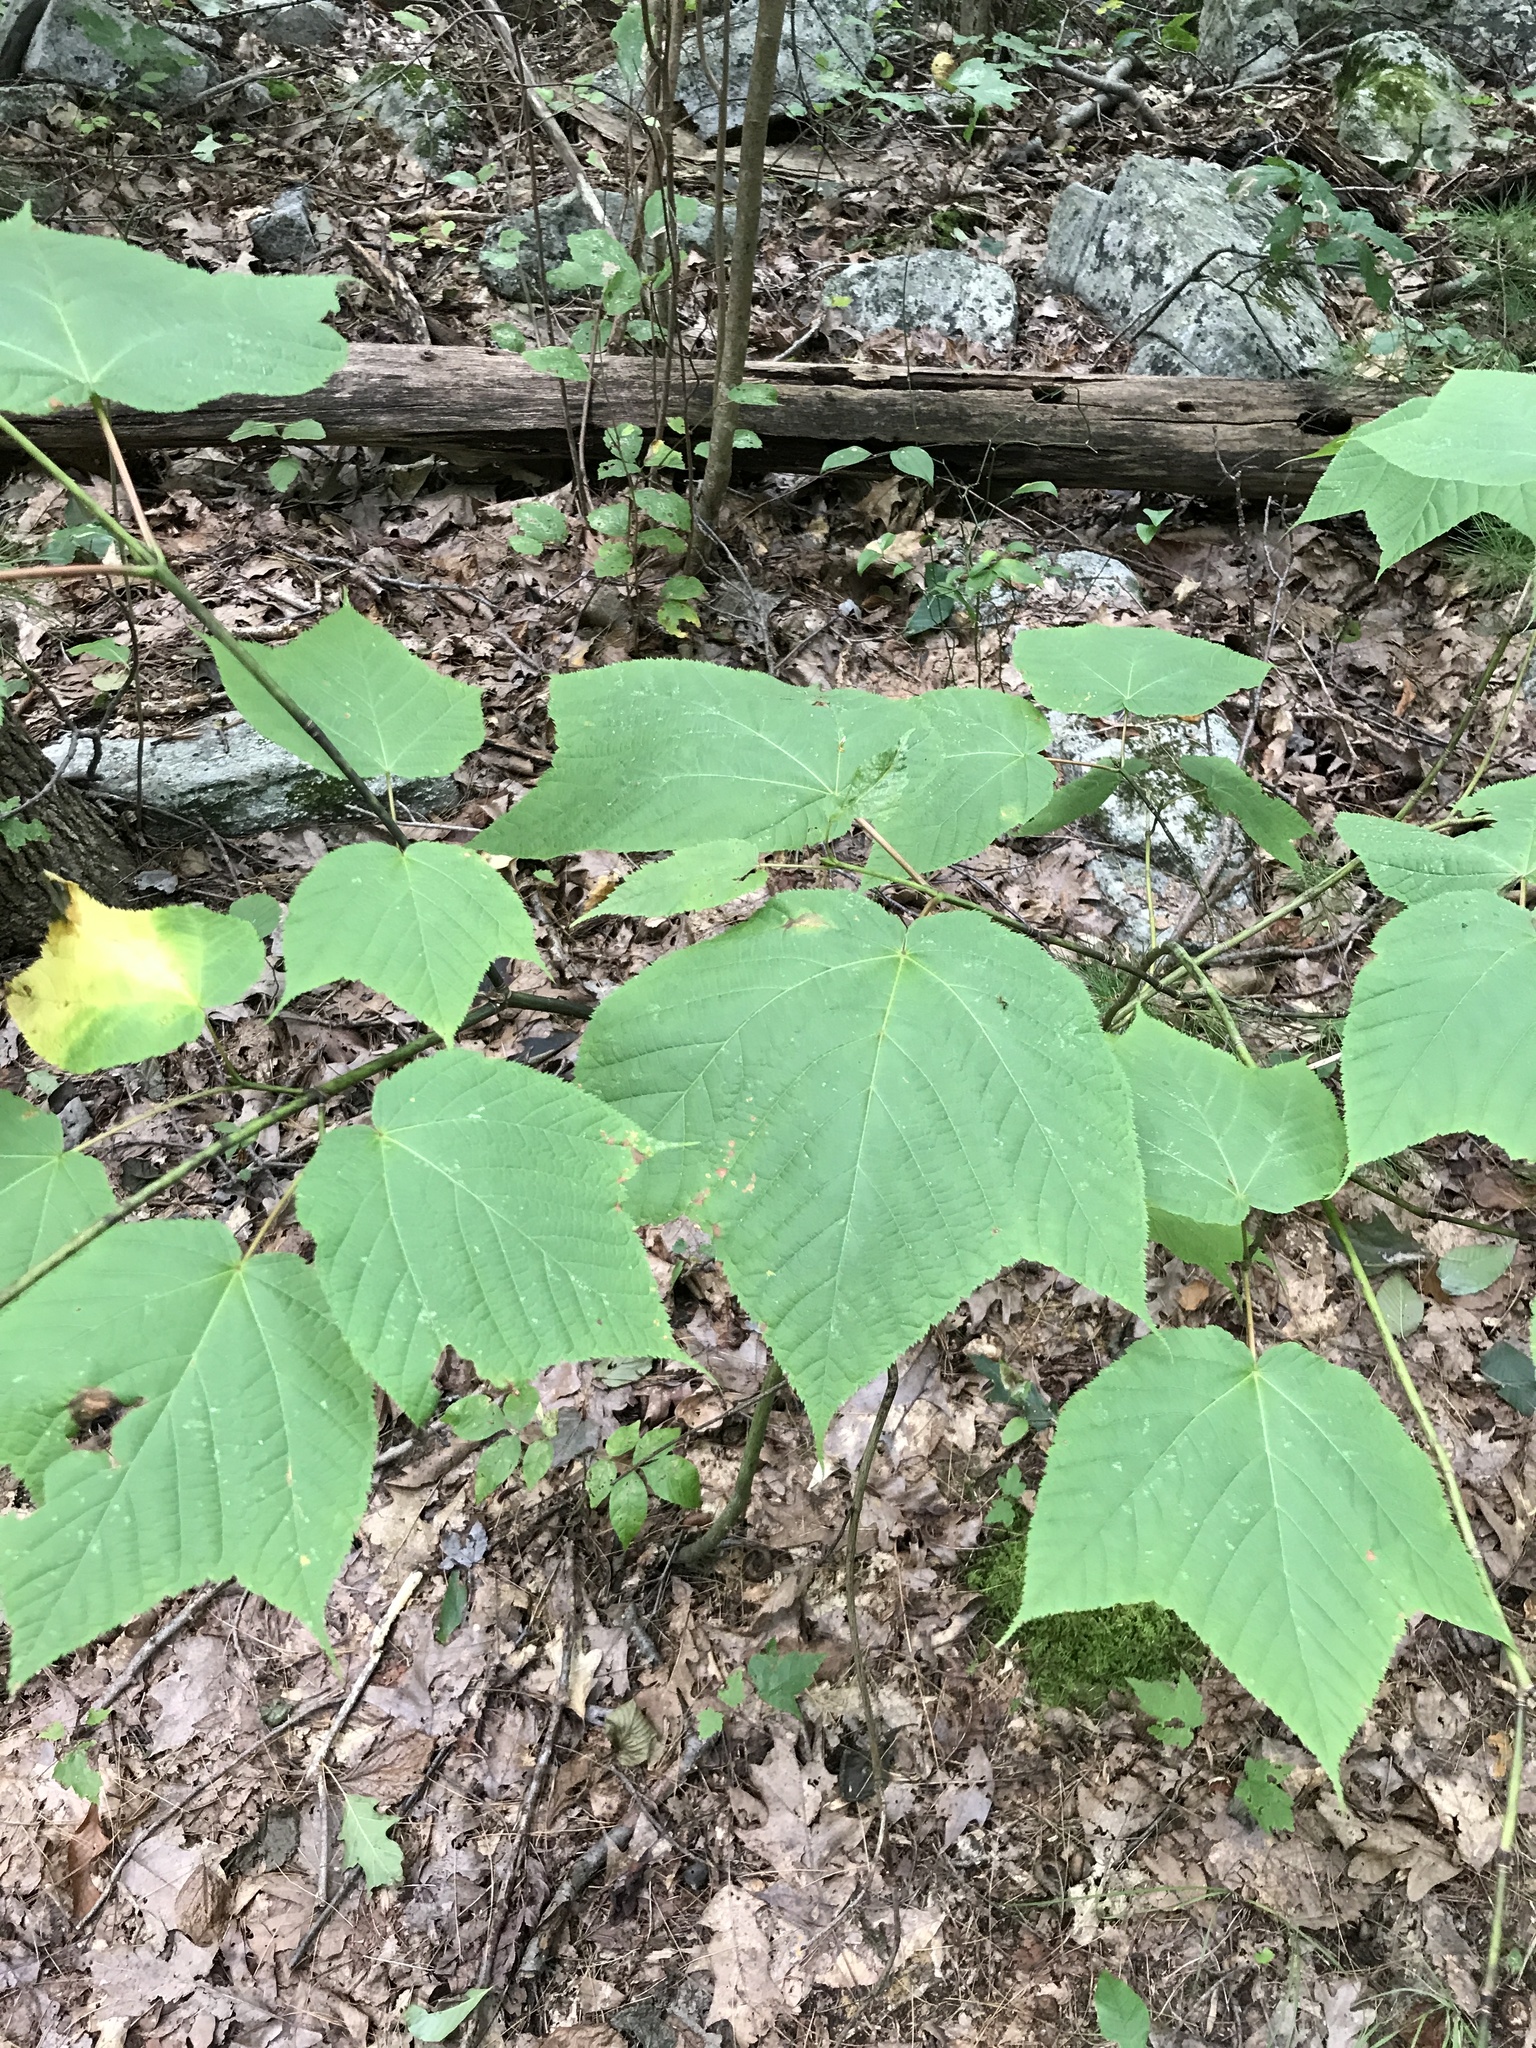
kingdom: Plantae
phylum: Tracheophyta
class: Magnoliopsida
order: Sapindales
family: Sapindaceae
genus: Acer
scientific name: Acer pensylvanicum
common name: Moosewood
